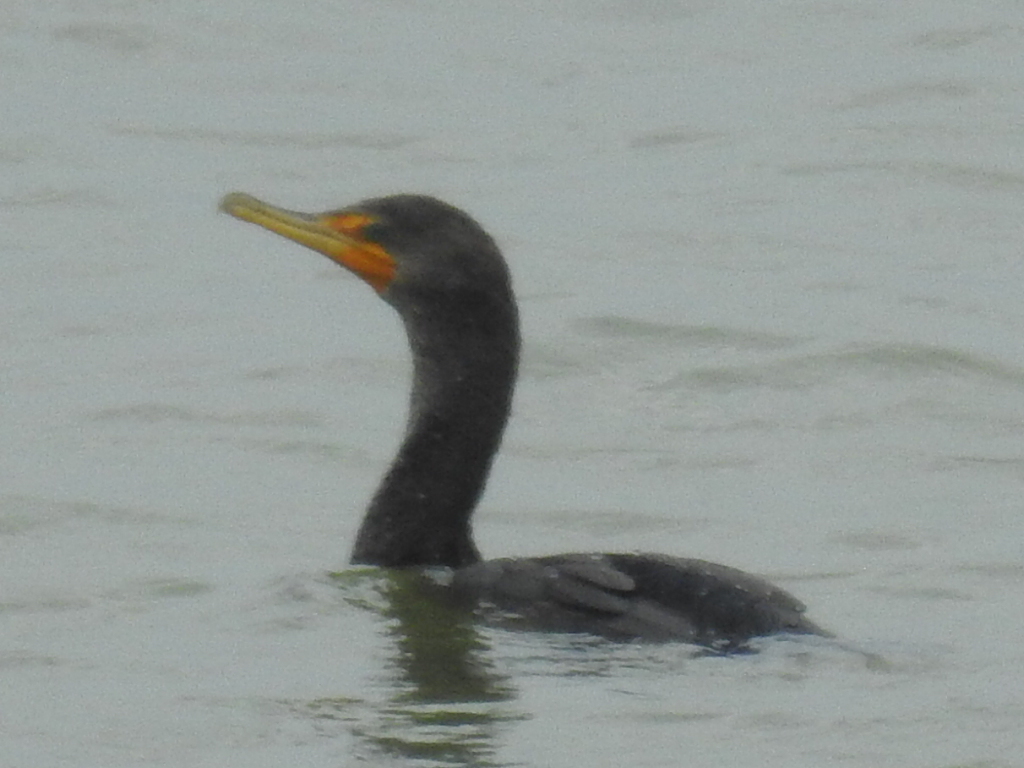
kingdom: Animalia
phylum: Chordata
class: Aves
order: Suliformes
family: Phalacrocoracidae
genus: Phalacrocorax
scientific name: Phalacrocorax auritus
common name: Double-crested cormorant
